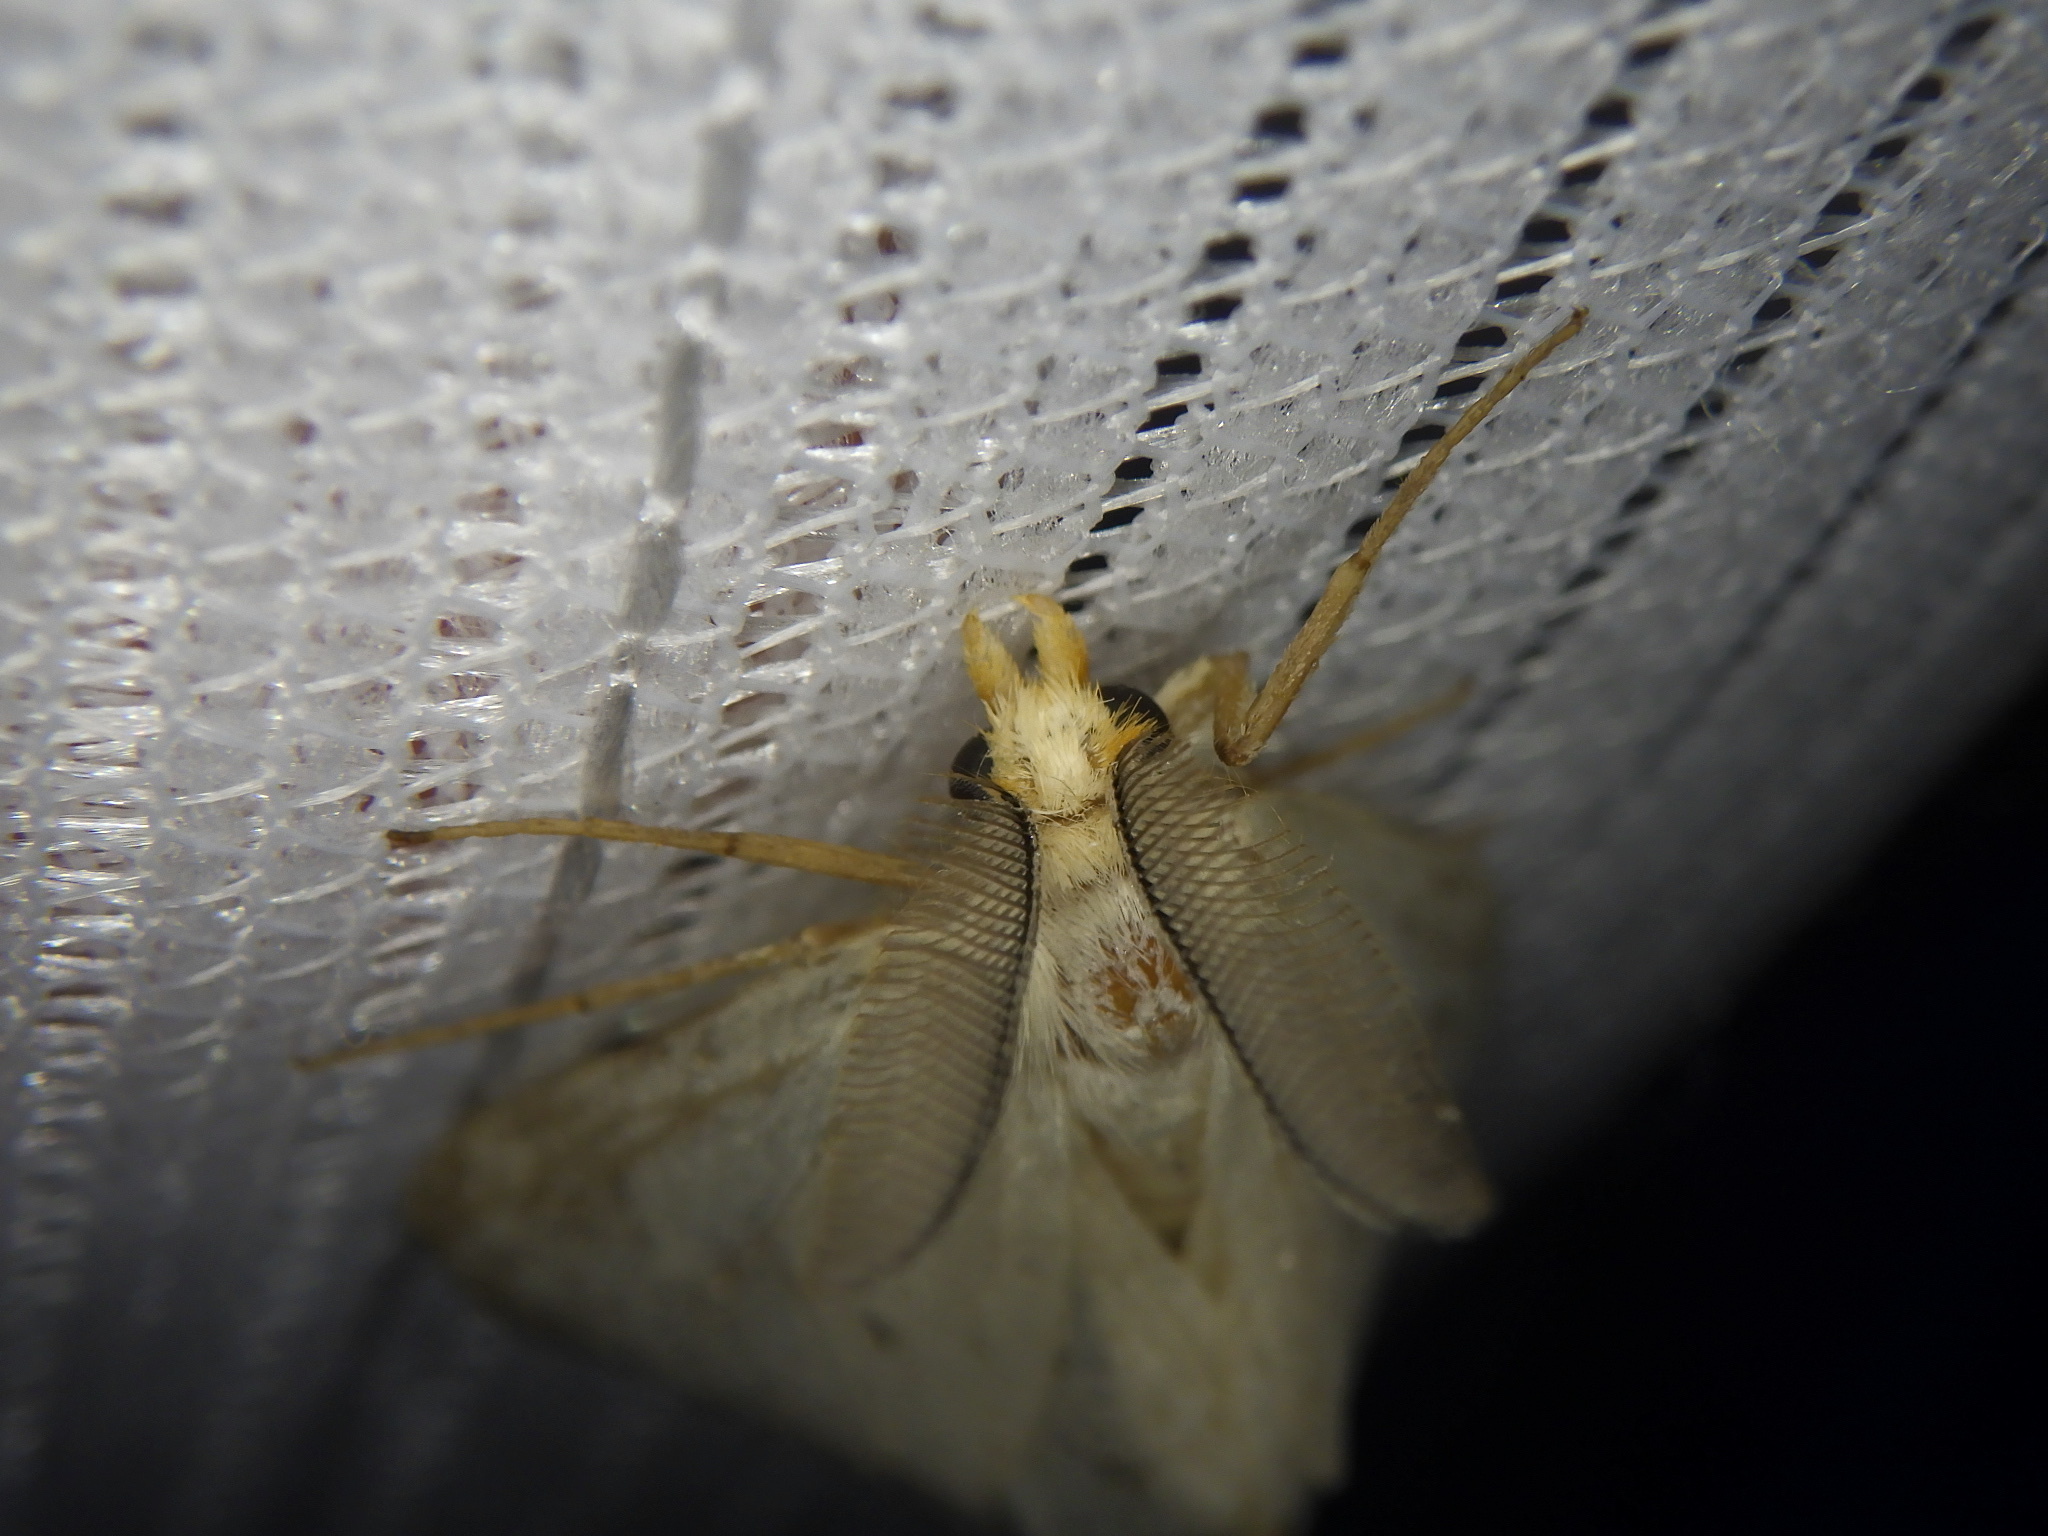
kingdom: Animalia
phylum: Arthropoda
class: Insecta
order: Lepidoptera
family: Erebidae
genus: Laelia
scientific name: Laelia gigantea
